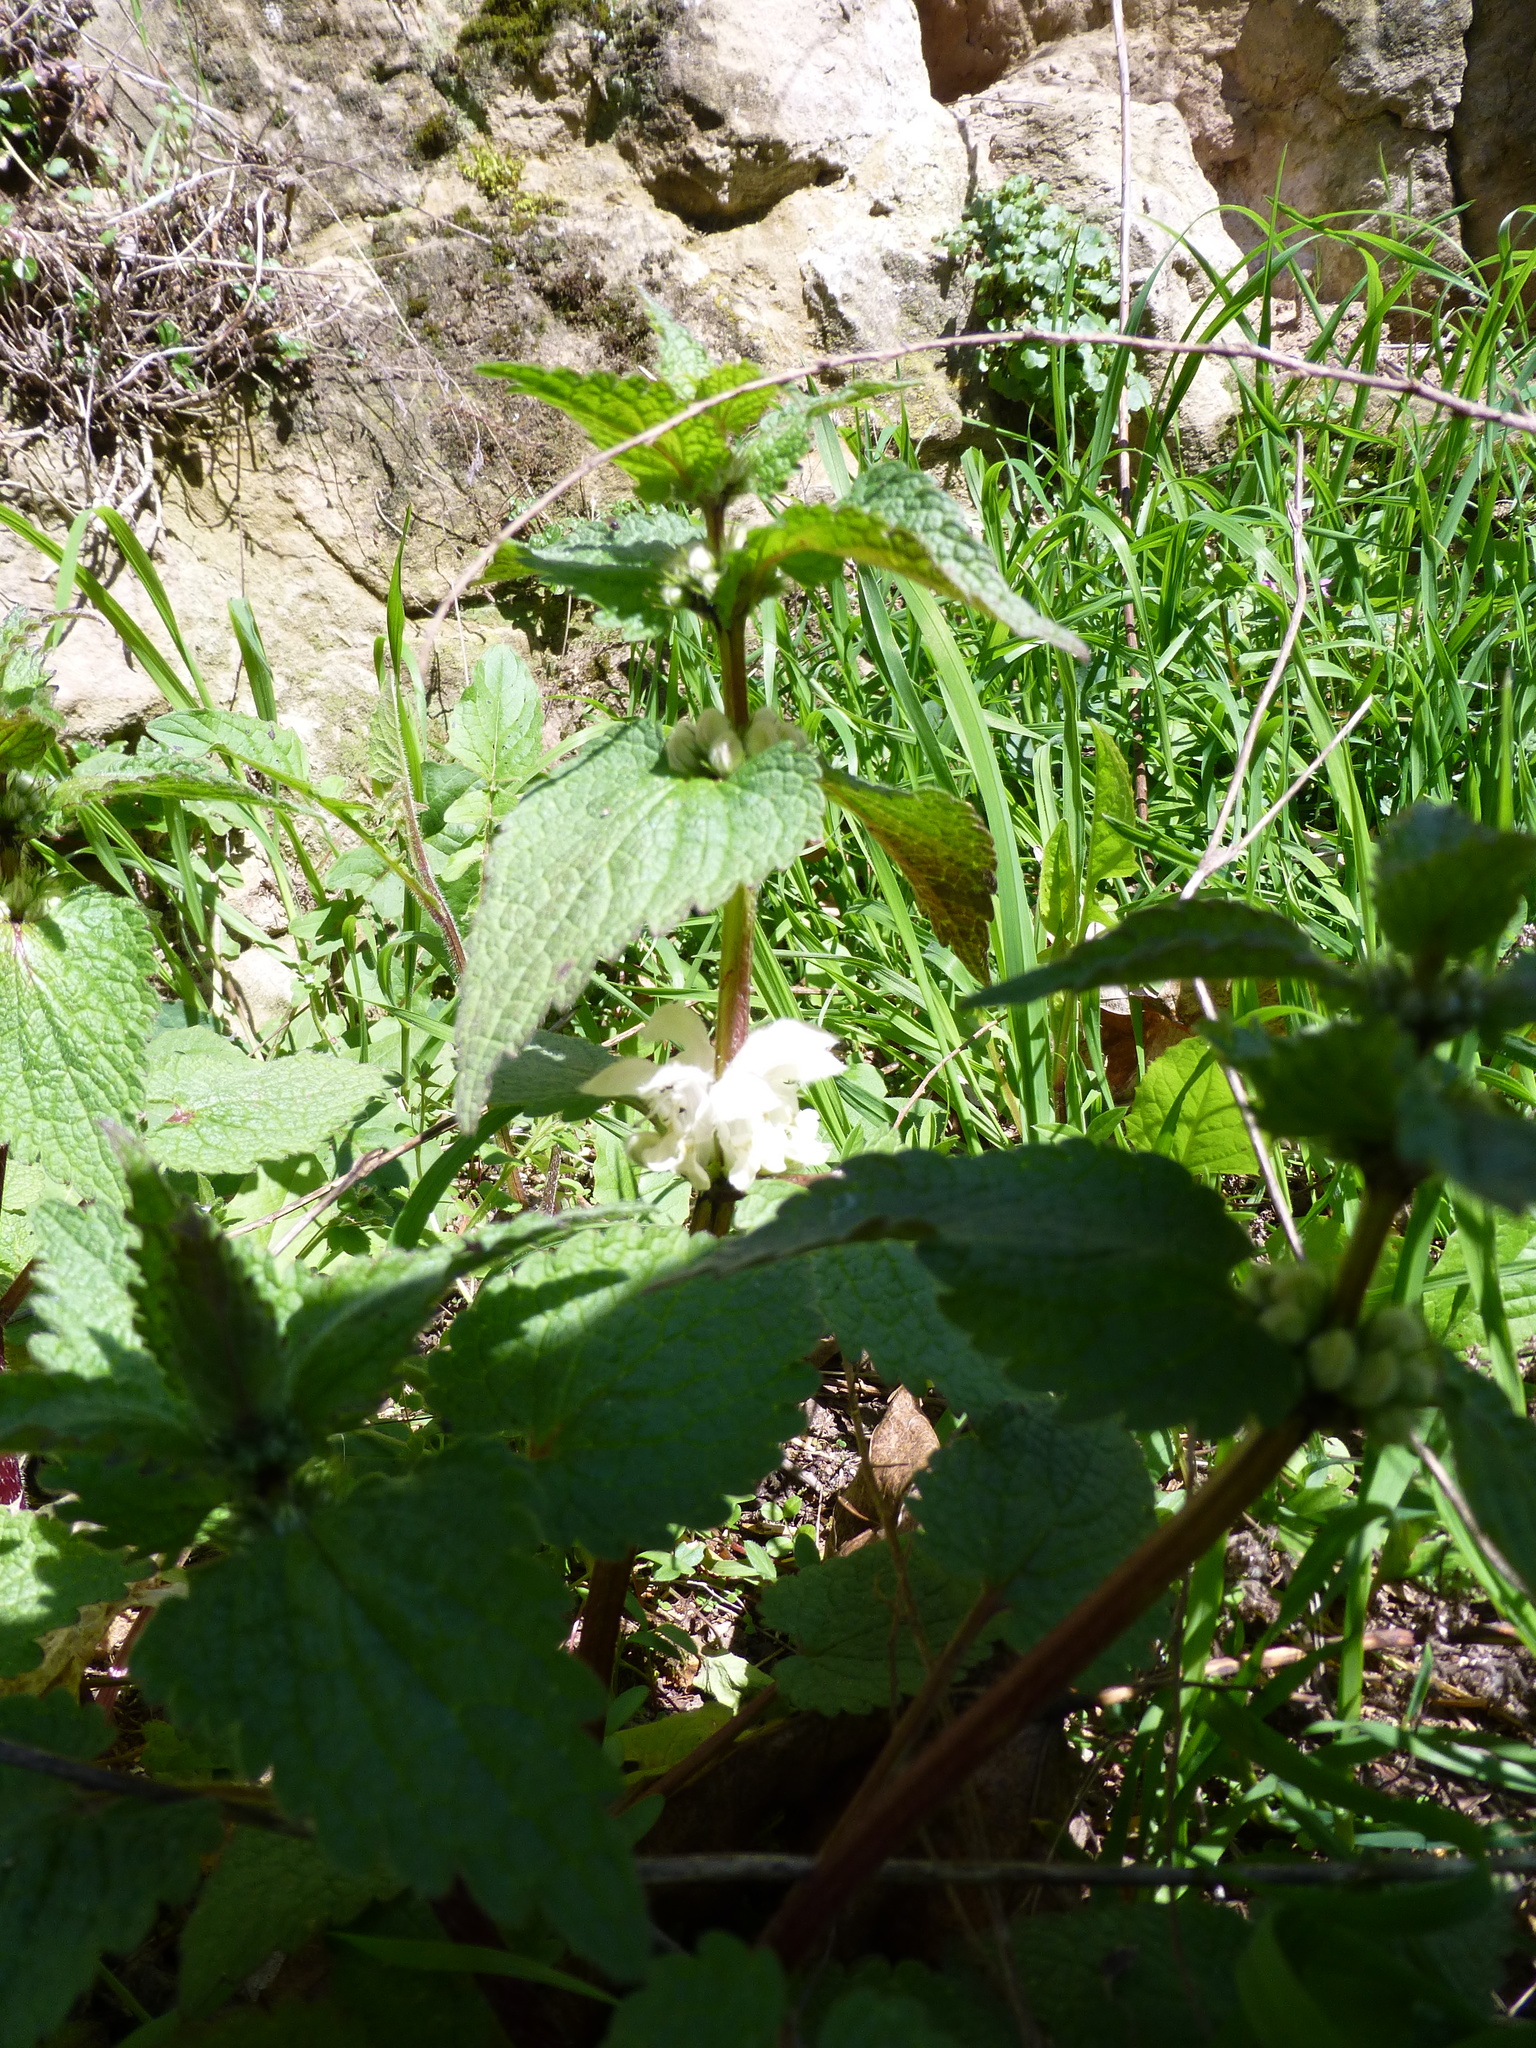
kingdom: Plantae
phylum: Tracheophyta
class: Magnoliopsida
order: Lamiales
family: Lamiaceae
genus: Lamium
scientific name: Lamium album
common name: White dead-nettle
